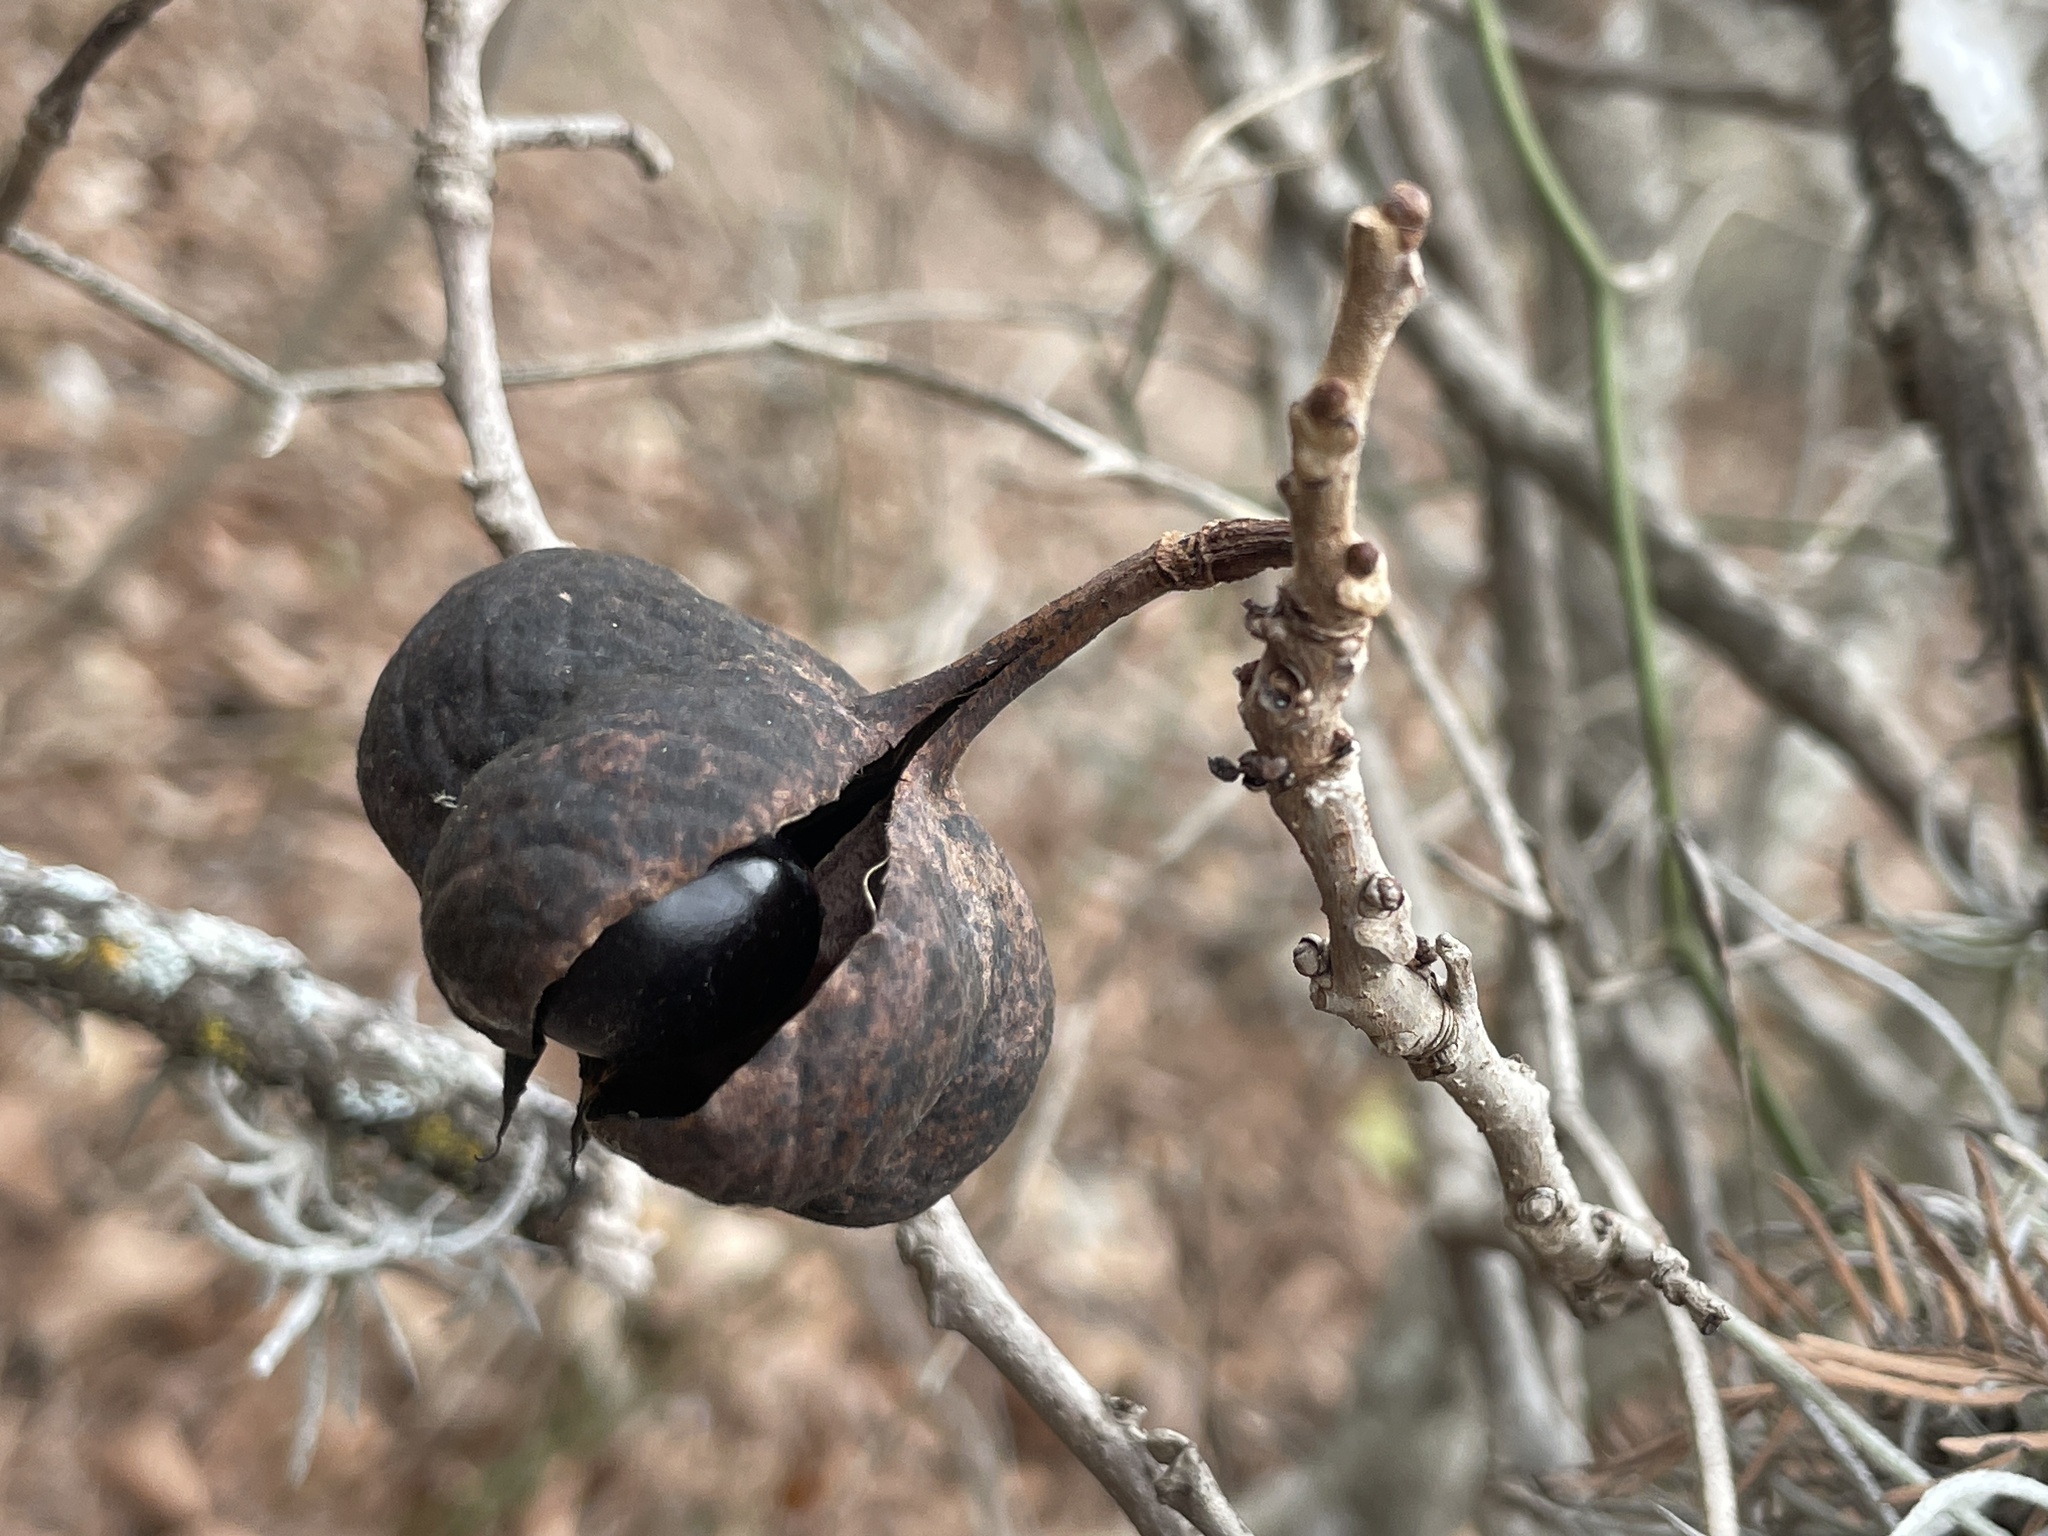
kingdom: Plantae
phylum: Tracheophyta
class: Magnoliopsida
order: Sapindales
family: Sapindaceae
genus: Ungnadia
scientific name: Ungnadia speciosa
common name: Texas-buckeye
